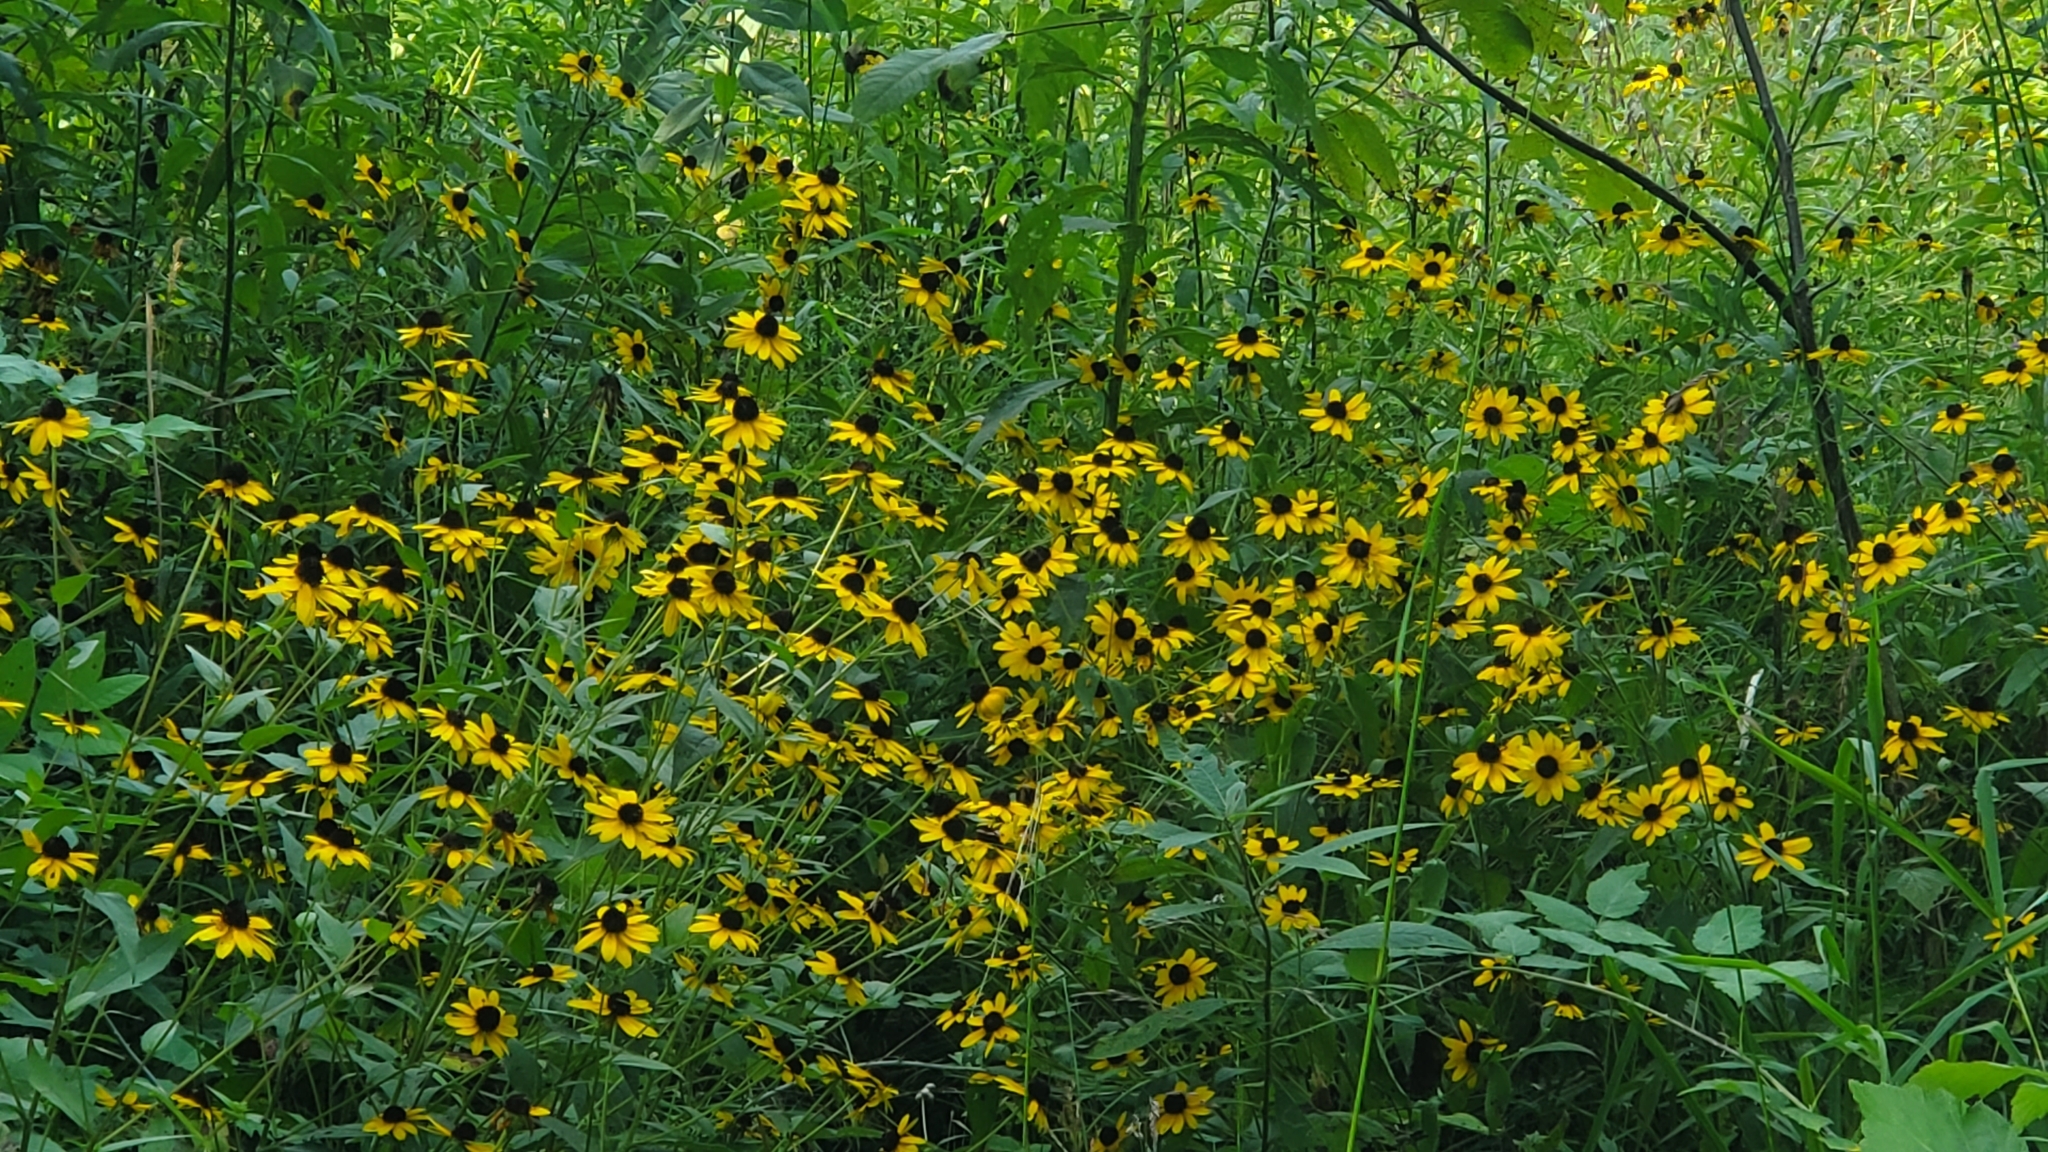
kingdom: Plantae
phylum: Tracheophyta
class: Magnoliopsida
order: Asterales
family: Asteraceae
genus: Rudbeckia
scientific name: Rudbeckia hirta
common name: Black-eyed-susan
